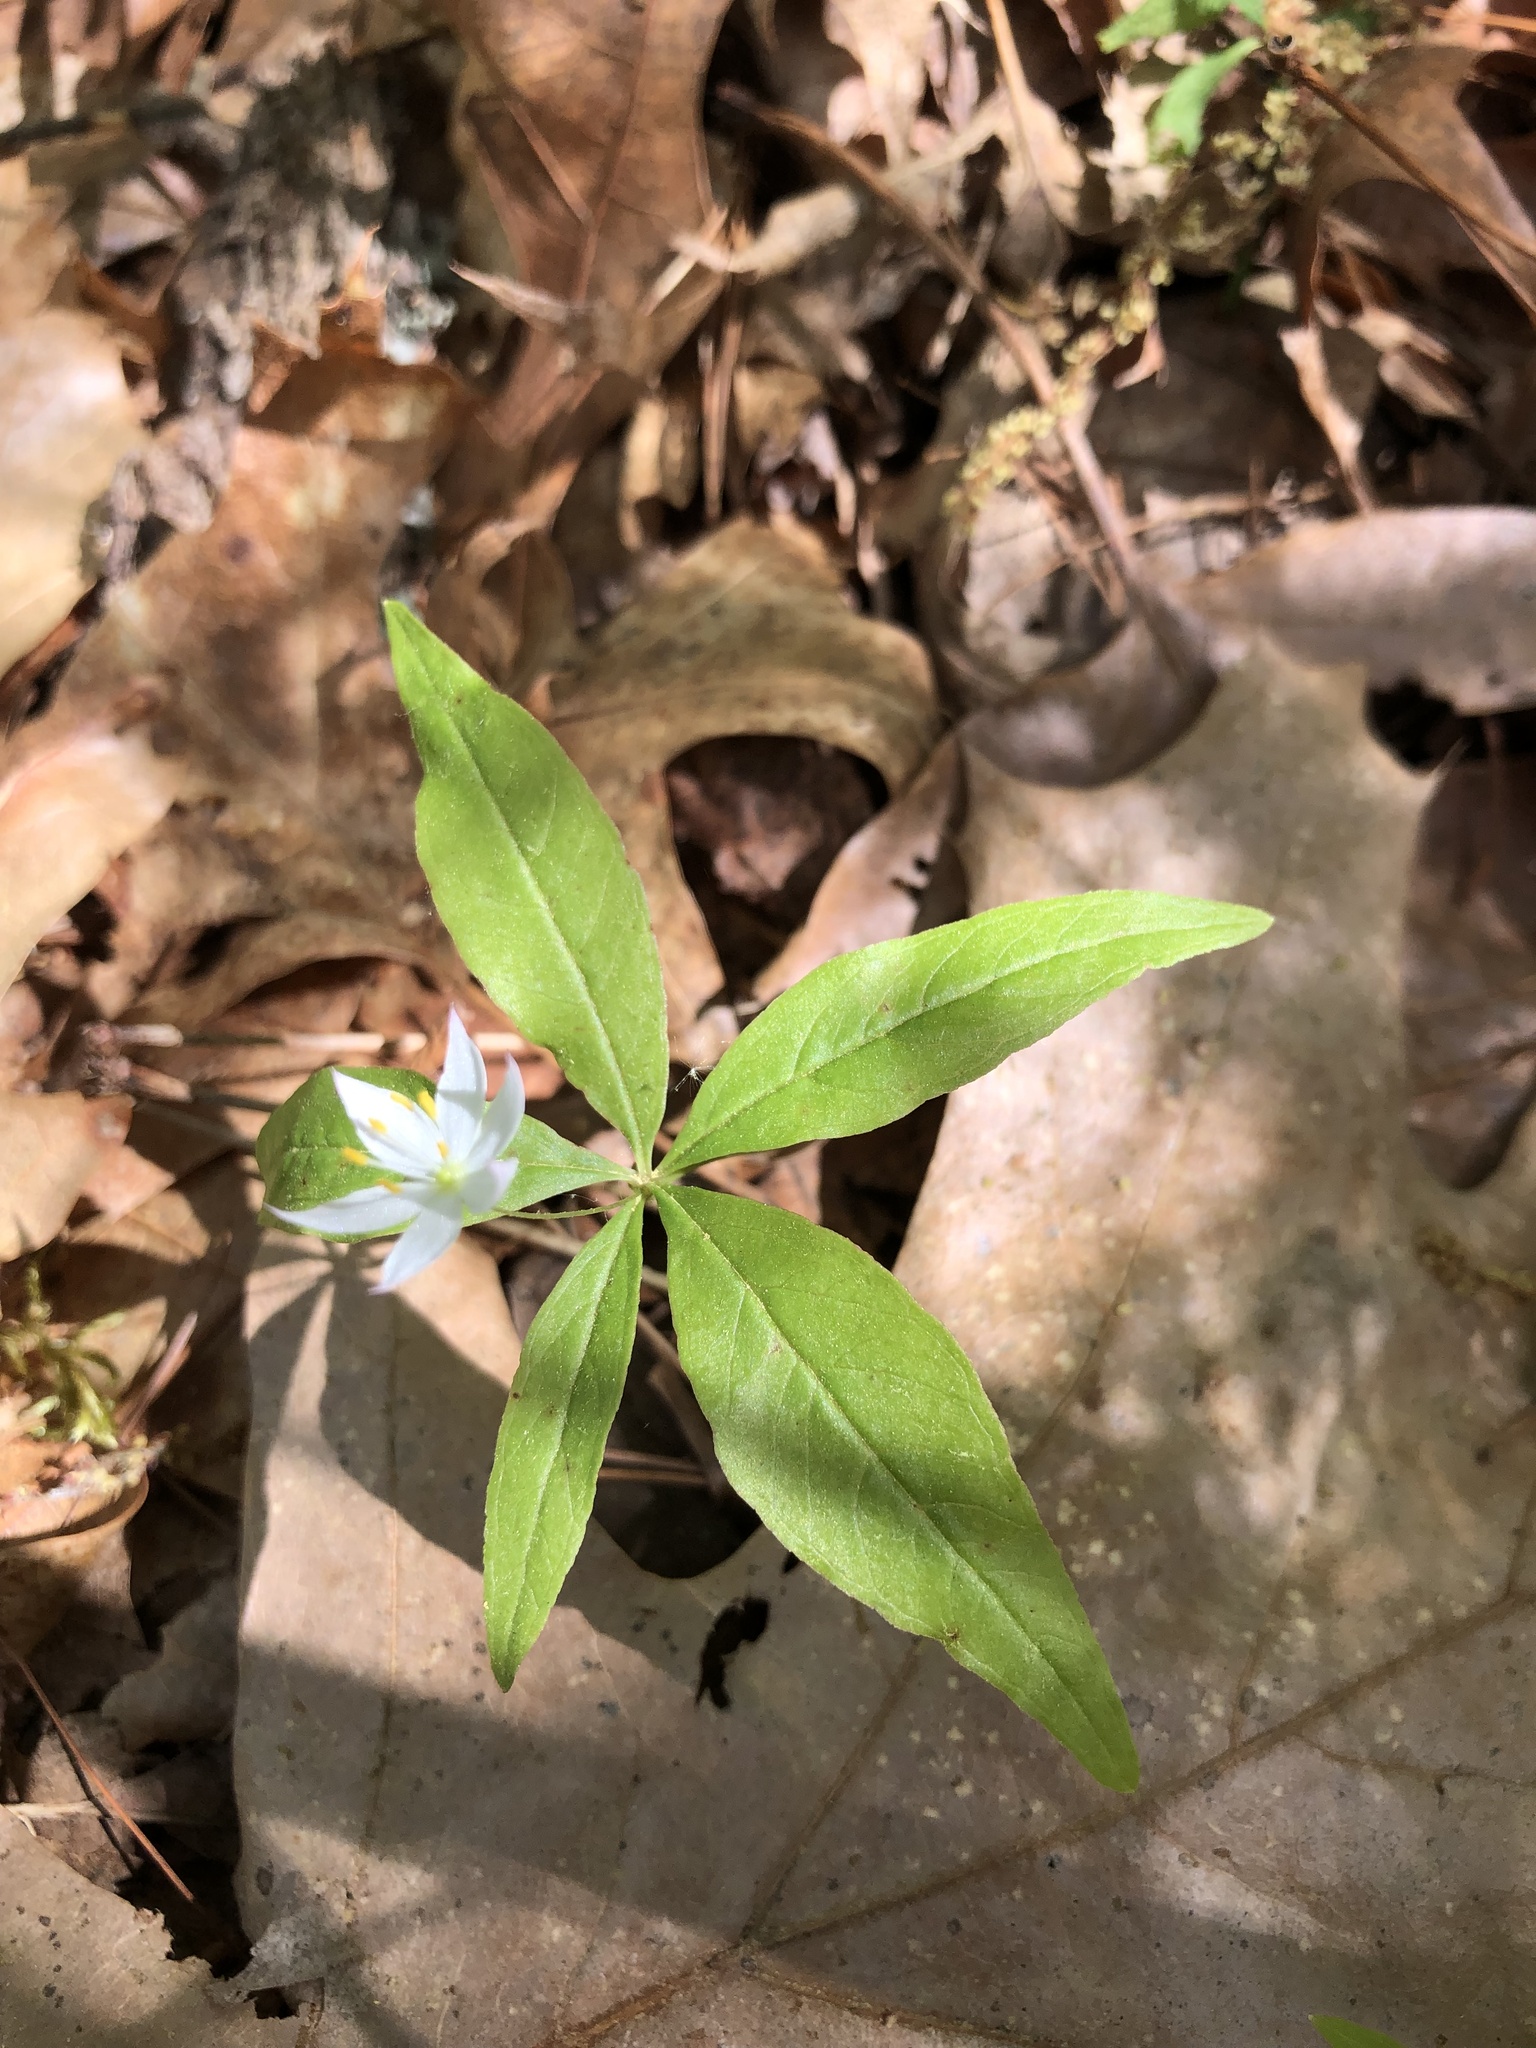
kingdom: Plantae
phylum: Tracheophyta
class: Magnoliopsida
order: Ericales
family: Primulaceae
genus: Lysimachia
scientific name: Lysimachia borealis
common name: American starflower
